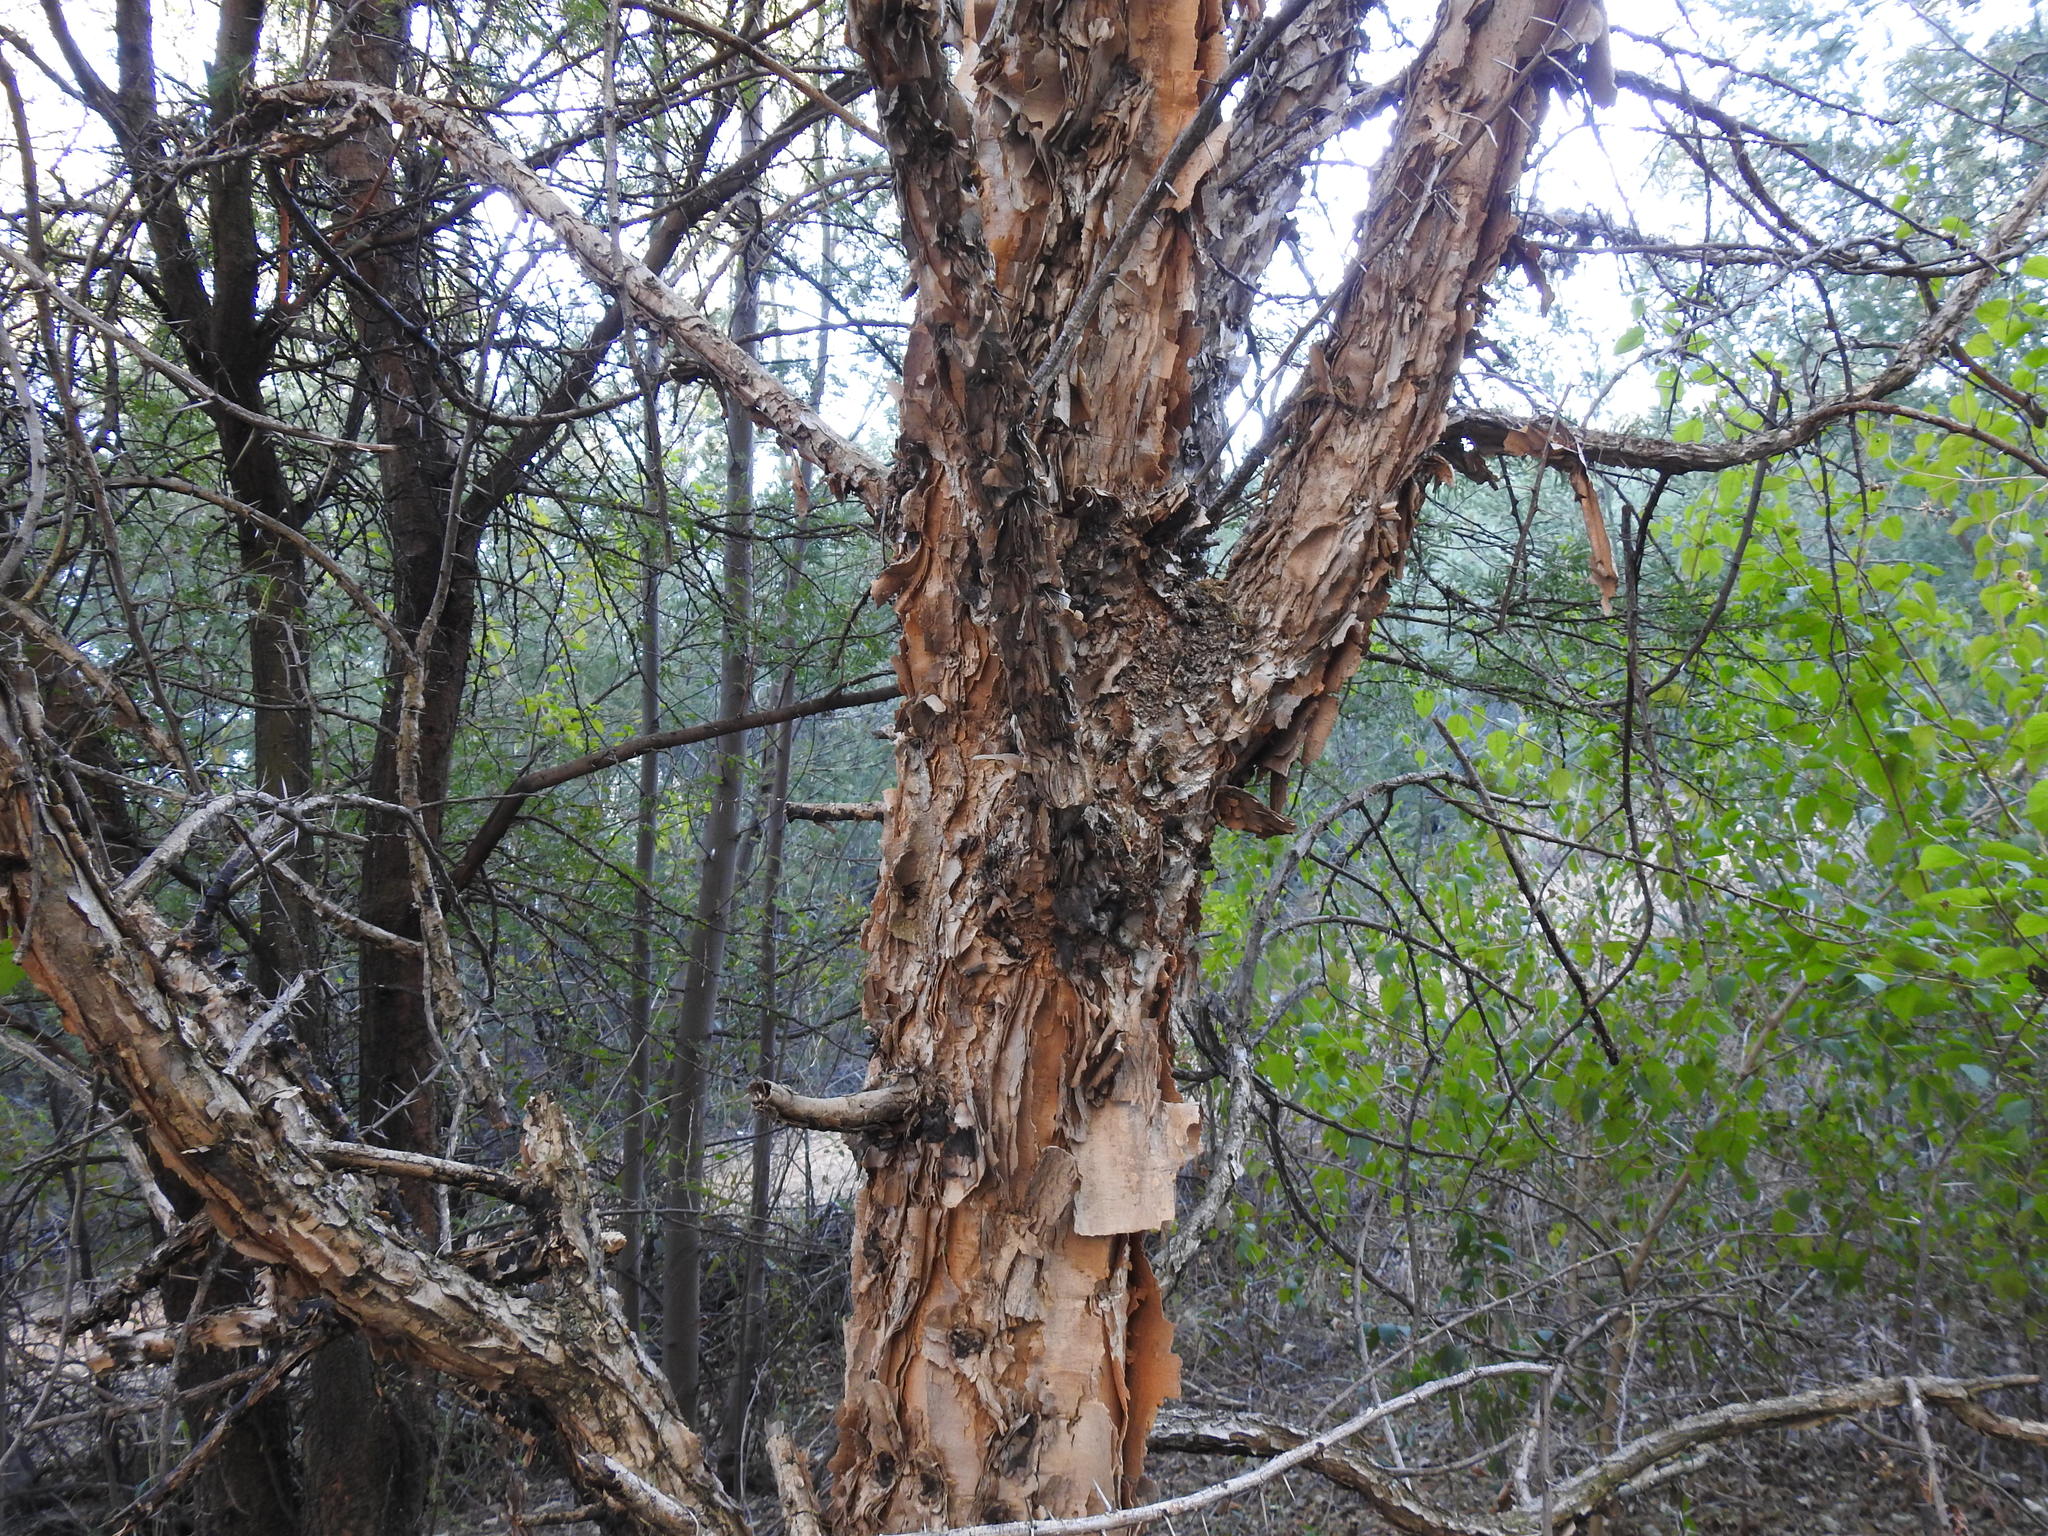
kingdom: Plantae
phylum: Tracheophyta
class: Magnoliopsida
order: Fabales
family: Fabaceae
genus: Vachellia
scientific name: Vachellia sieberiana
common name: Flat-topped thorn
